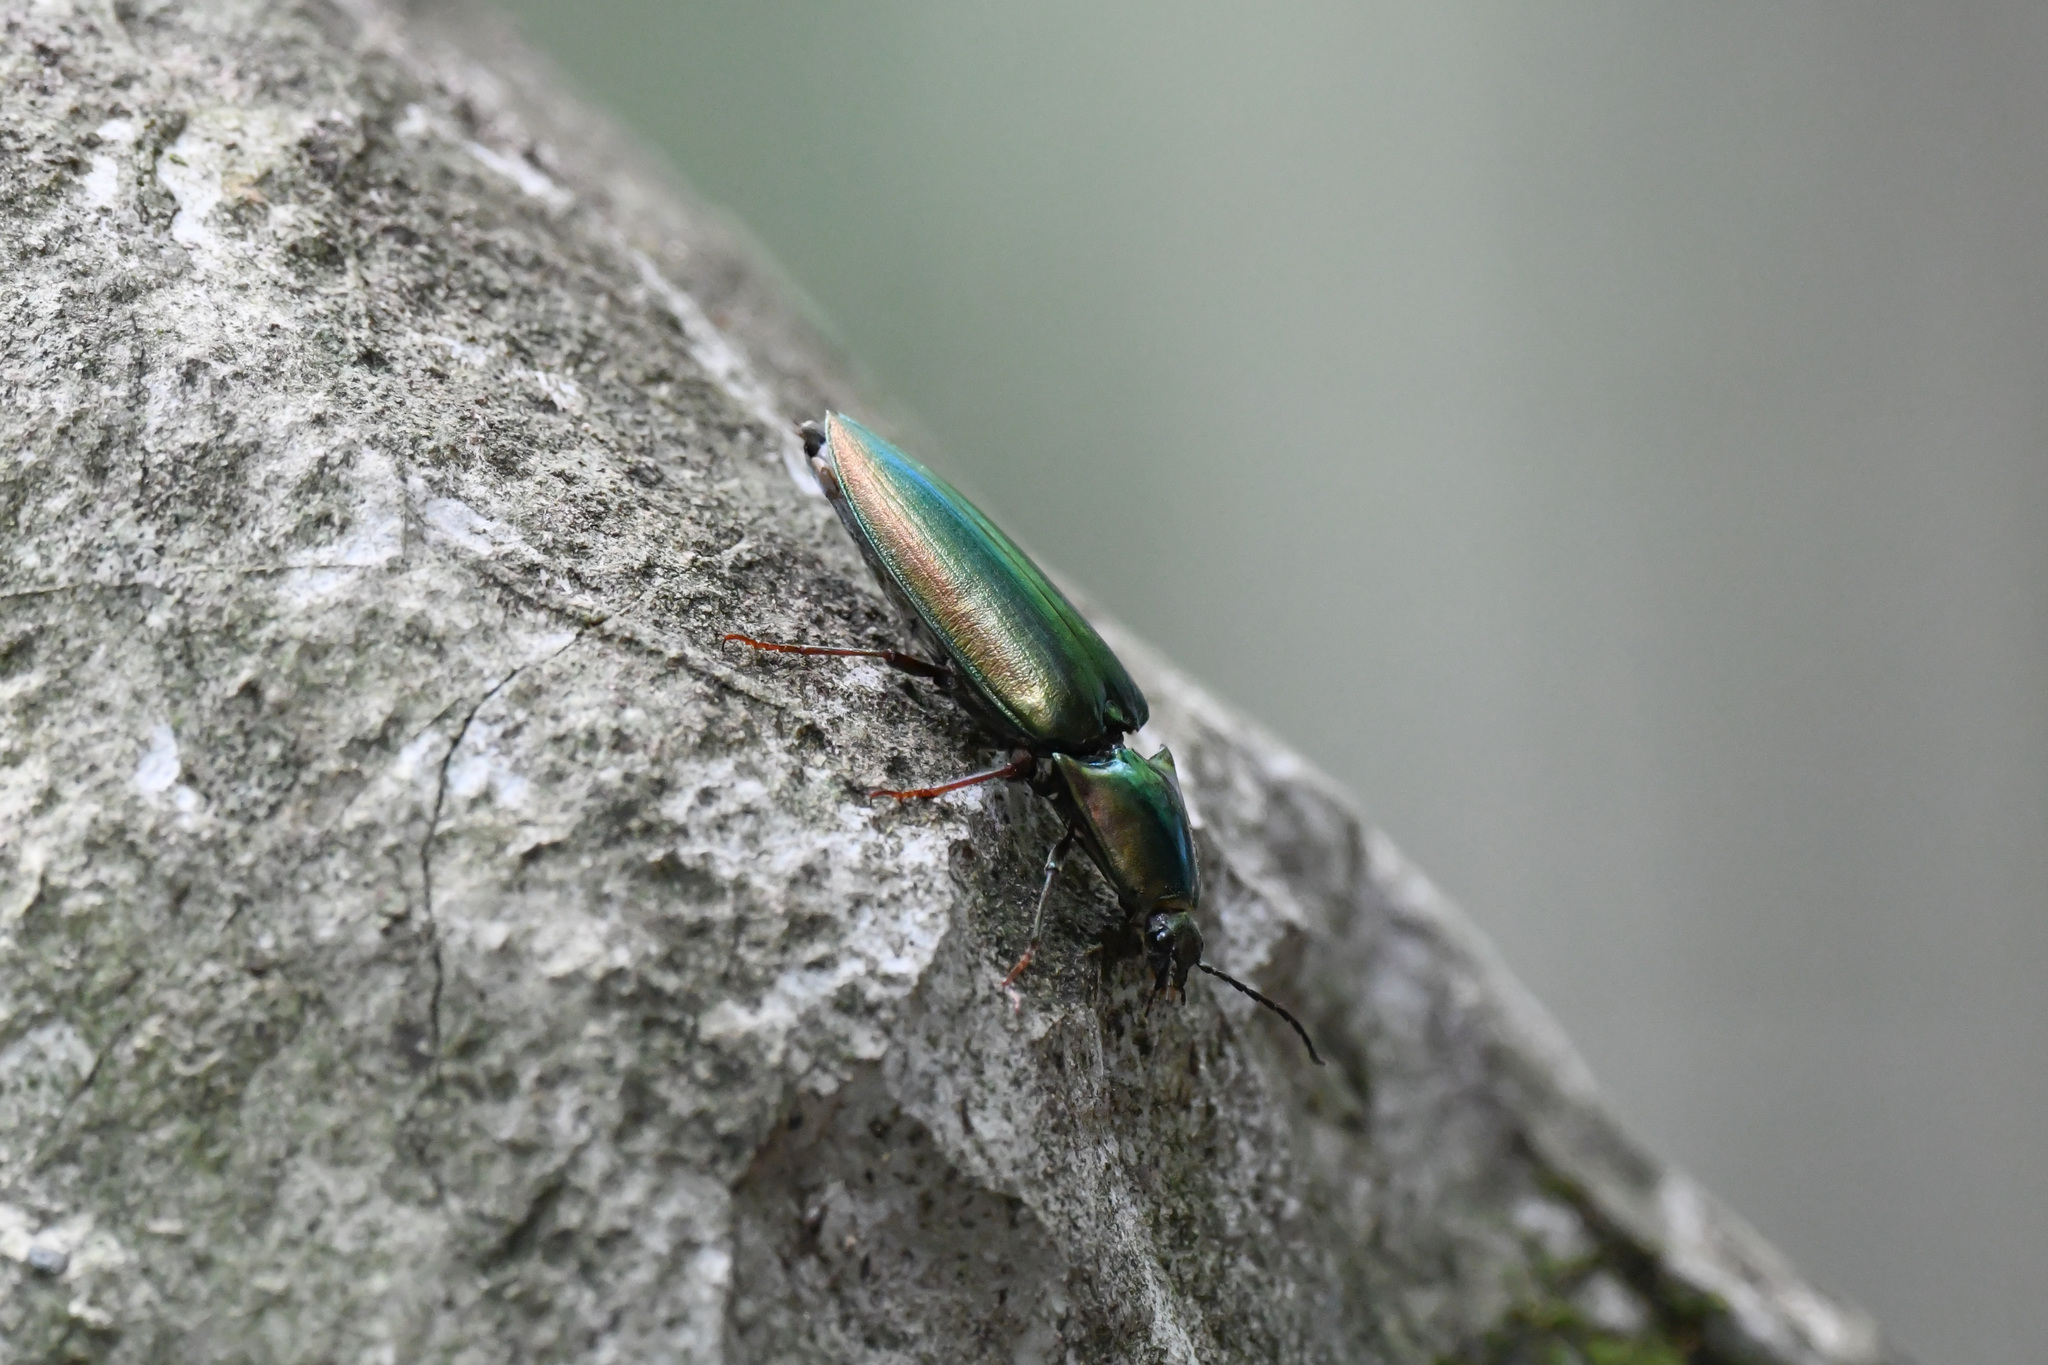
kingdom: Animalia
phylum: Arthropoda
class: Insecta
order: Coleoptera
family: Elateridae
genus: Campsosternus
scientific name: Campsosternus auratus
